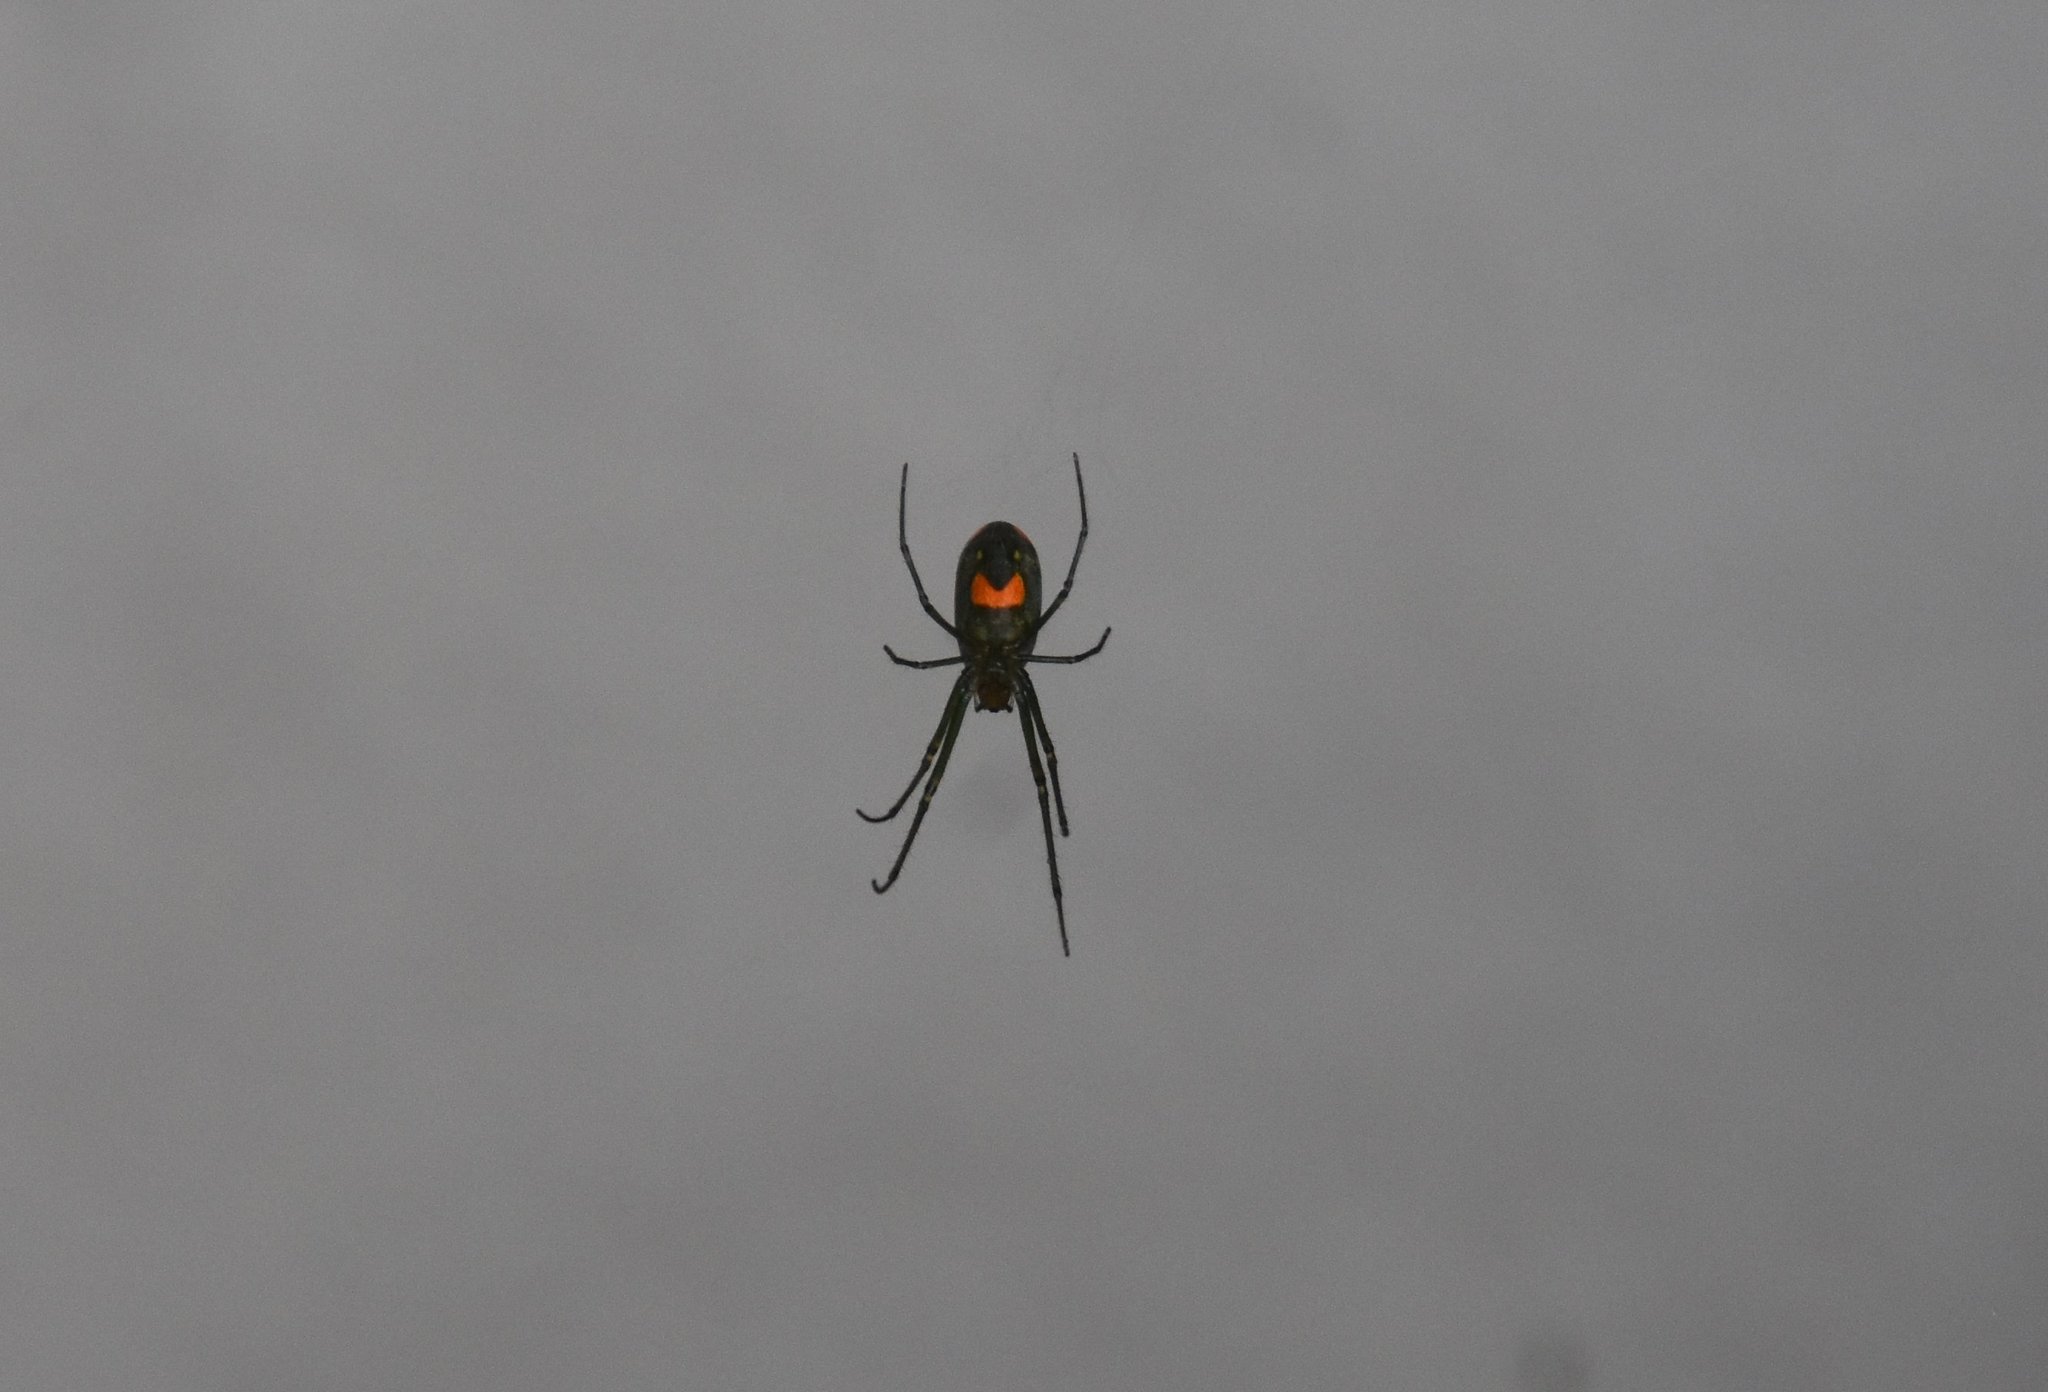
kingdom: Animalia
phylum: Arthropoda
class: Arachnida
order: Araneae
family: Tetragnathidae
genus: Leucauge
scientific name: Leucauge argyrobapta
